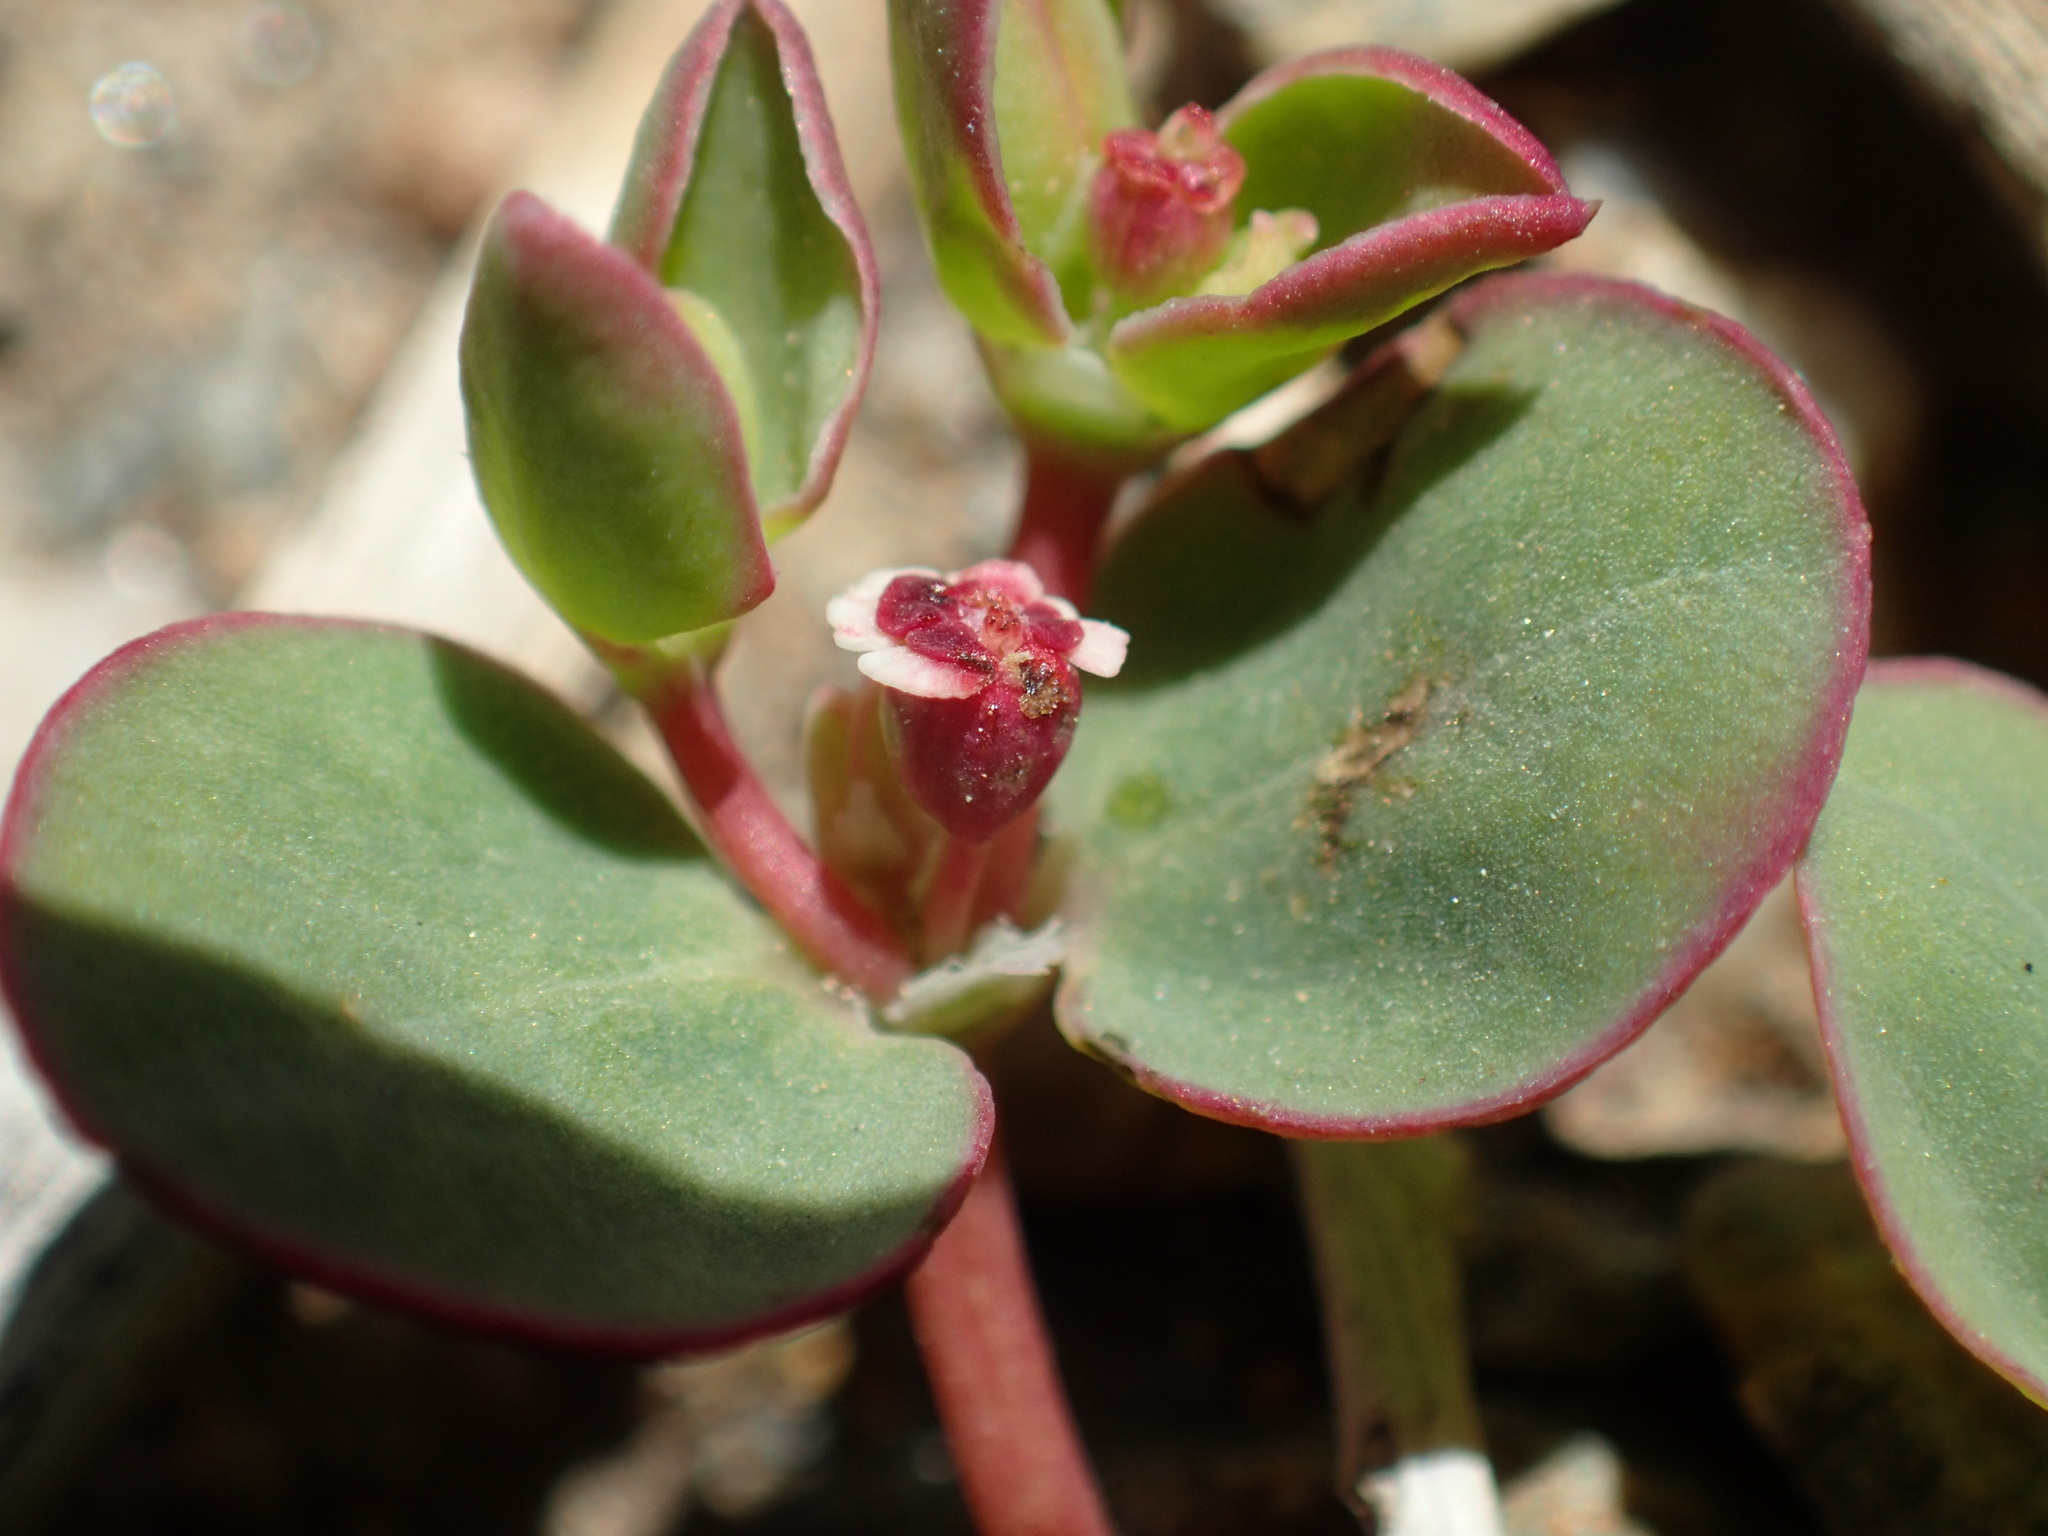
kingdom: Plantae
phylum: Tracheophyta
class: Magnoliopsida
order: Malpighiales
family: Euphorbiaceae
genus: Euphorbia
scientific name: Euphorbia albomarginata
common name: Whitemargin sandmat
